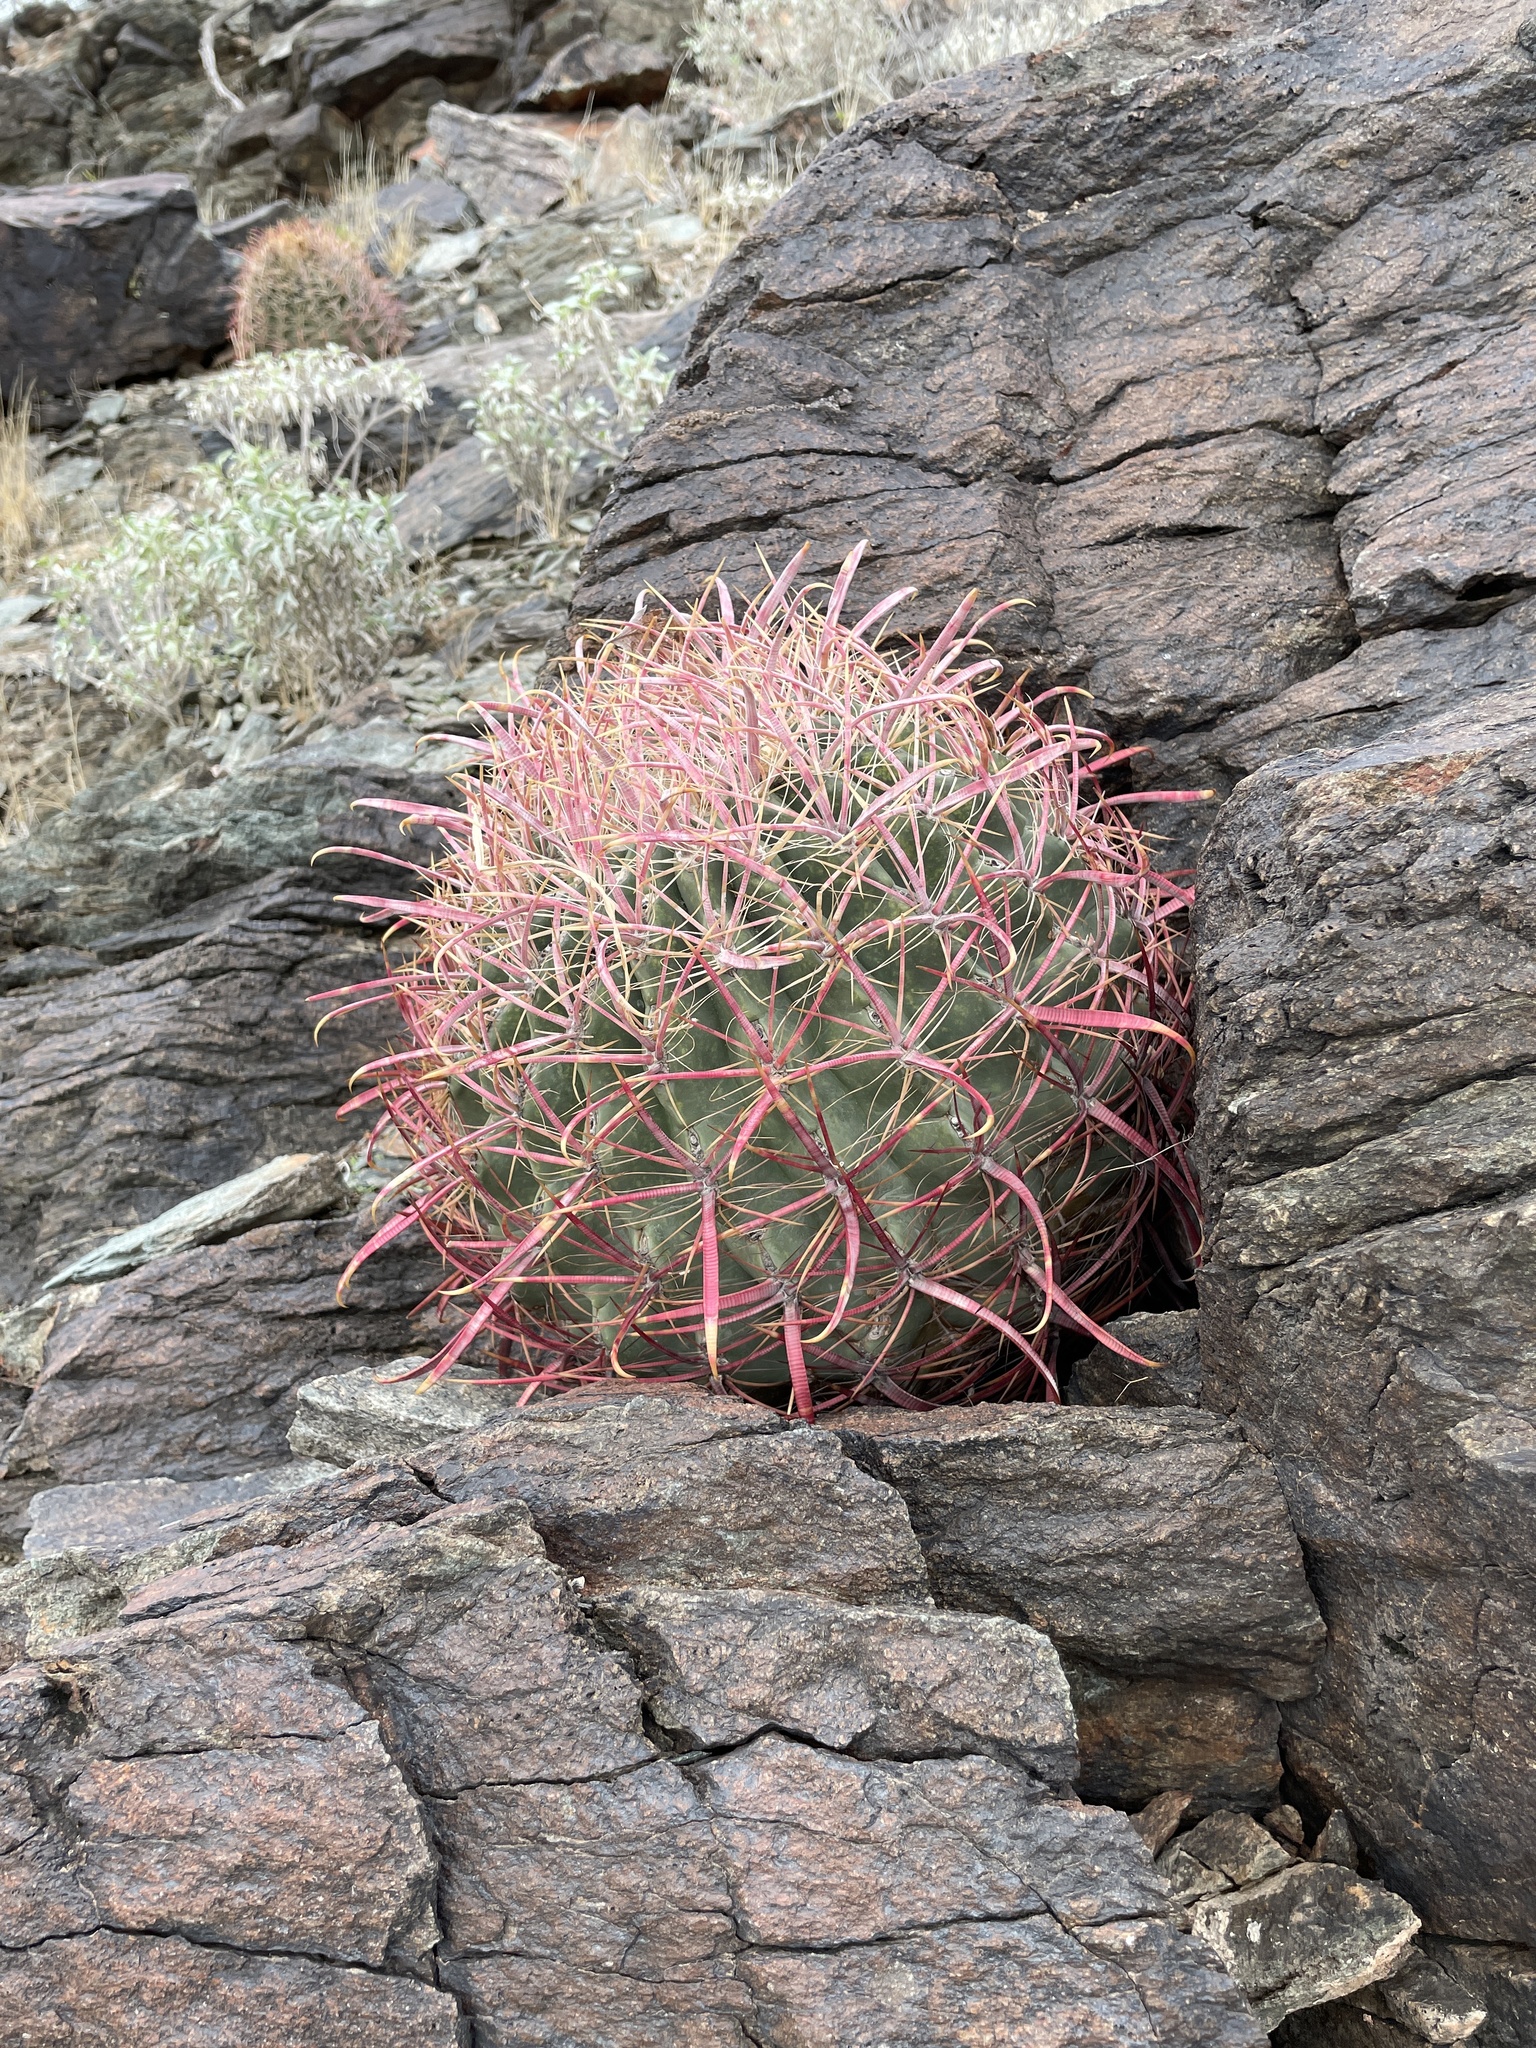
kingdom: Plantae
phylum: Tracheophyta
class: Magnoliopsida
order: Caryophyllales
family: Cactaceae
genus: Ferocactus
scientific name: Ferocactus cylindraceus
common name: California barrel cactus
